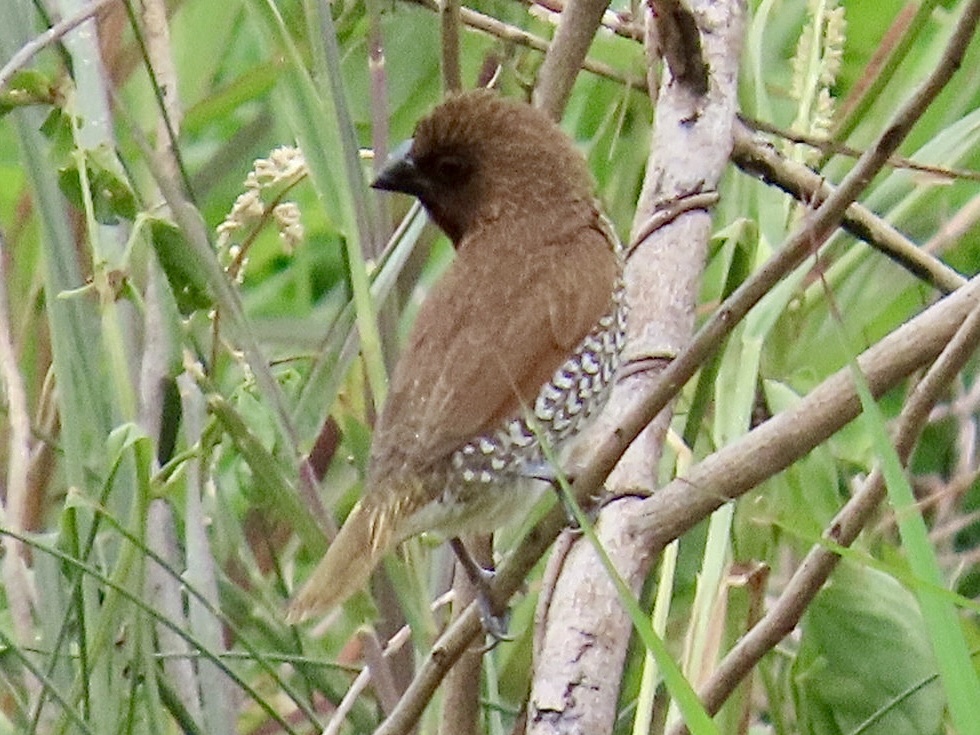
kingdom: Animalia
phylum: Chordata
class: Aves
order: Passeriformes
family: Estrildidae
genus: Lonchura
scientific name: Lonchura punctulata
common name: Scaly-breasted munia
